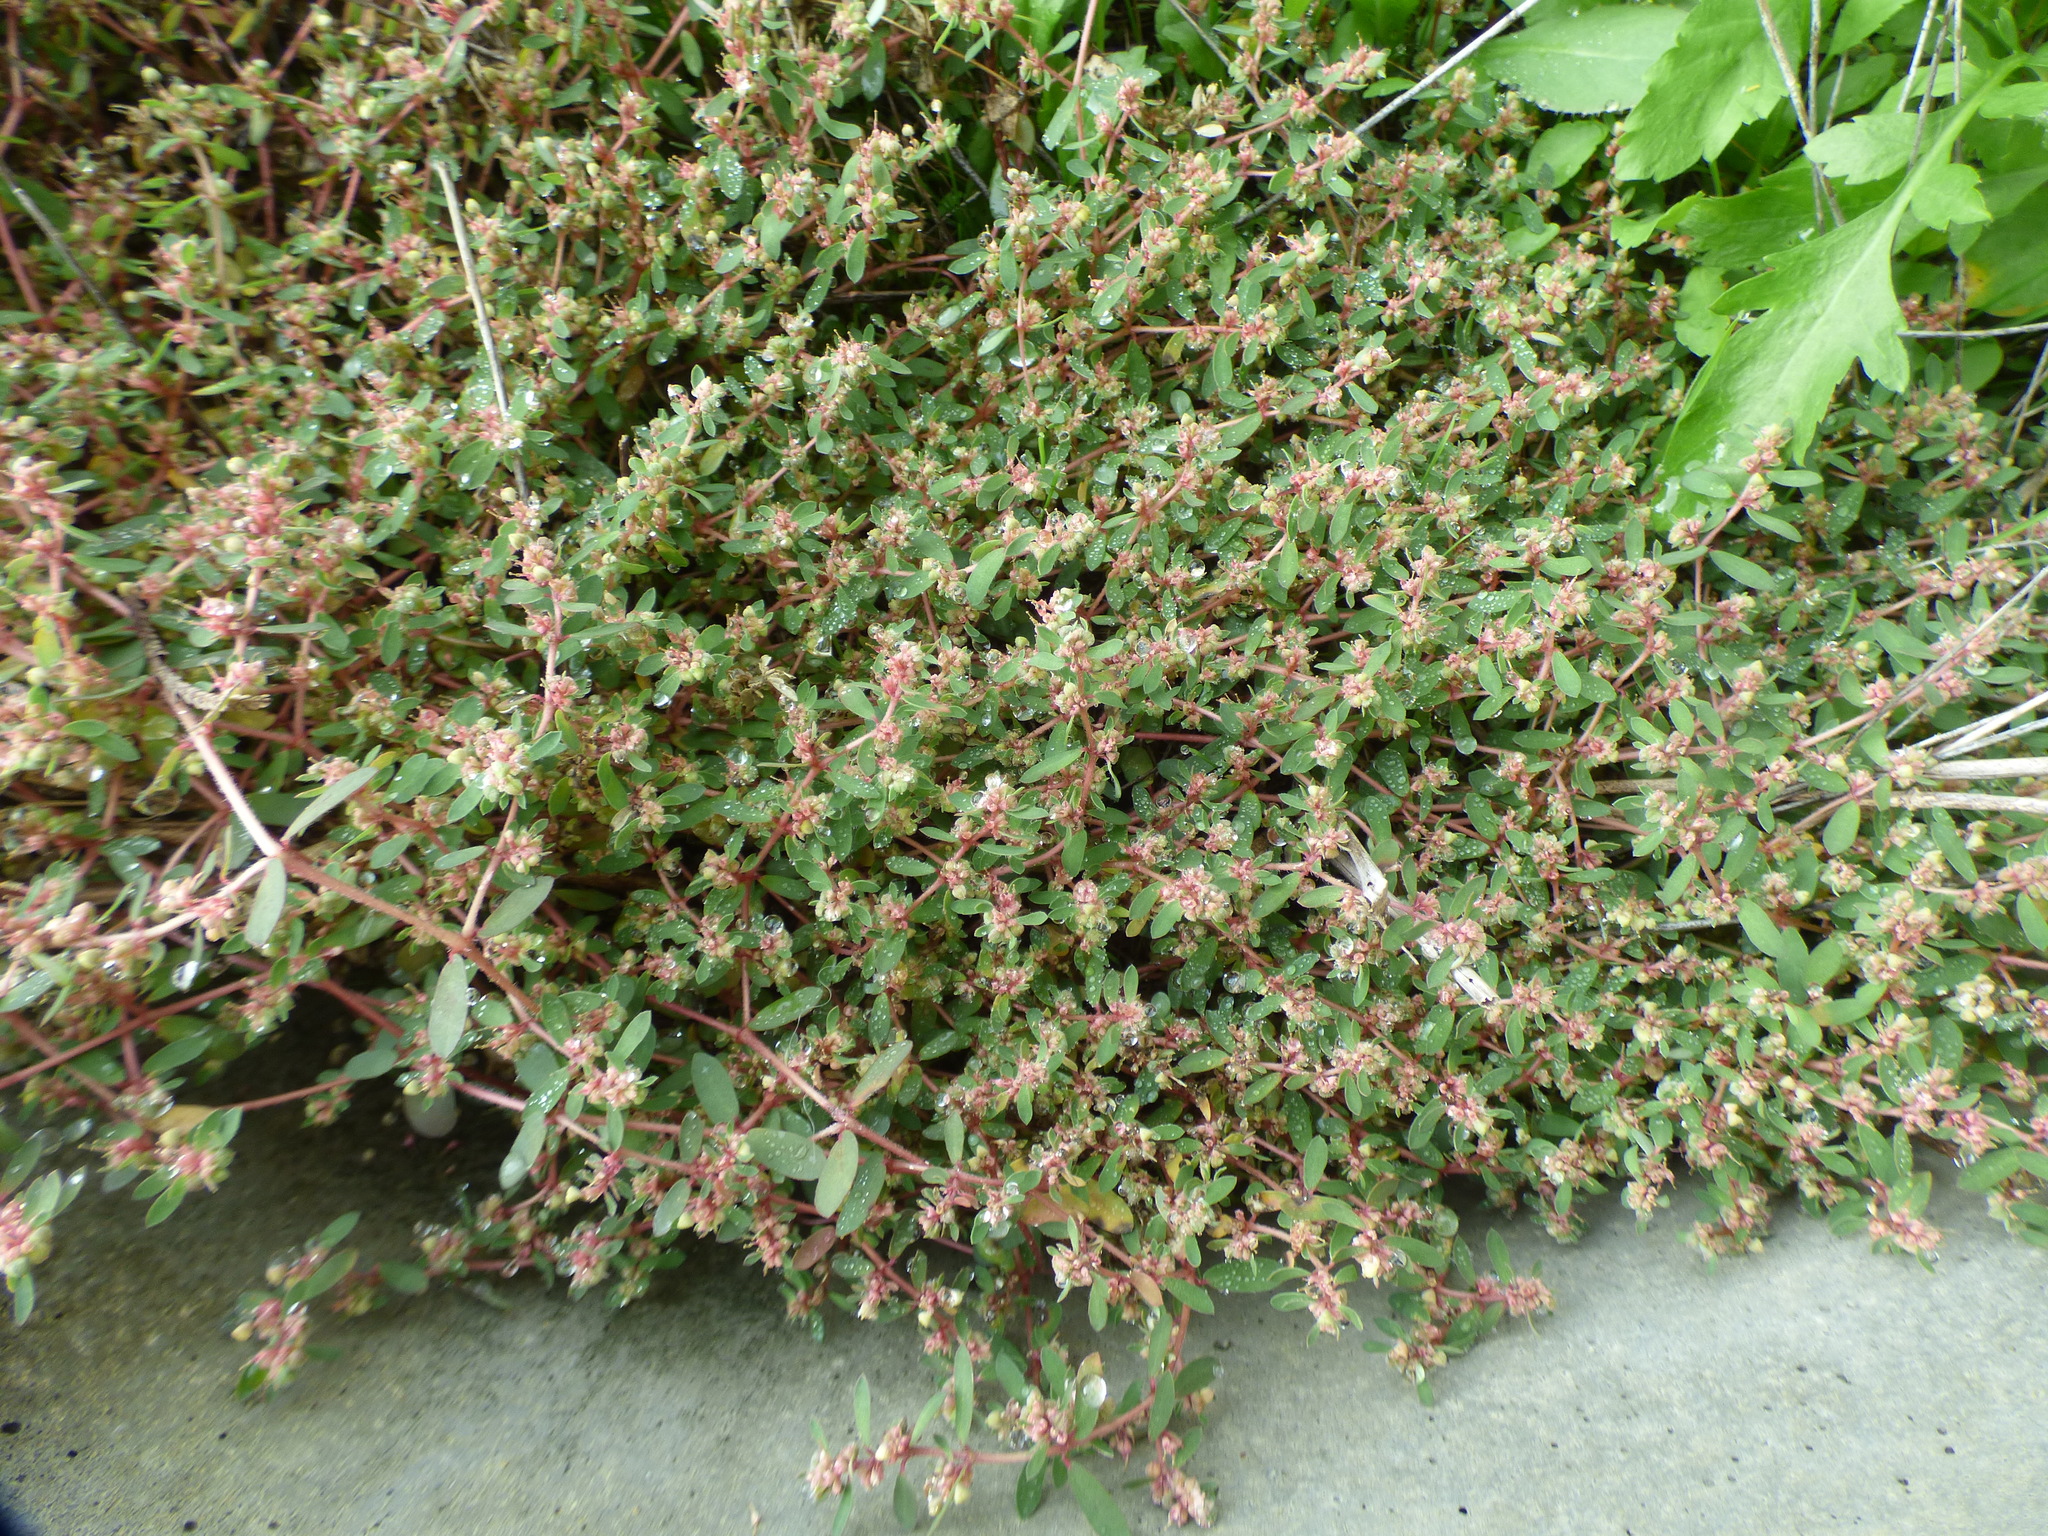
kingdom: Plantae
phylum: Tracheophyta
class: Magnoliopsida
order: Malpighiales
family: Euphorbiaceae
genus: Euphorbia
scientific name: Euphorbia maculata
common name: Spotted spurge
